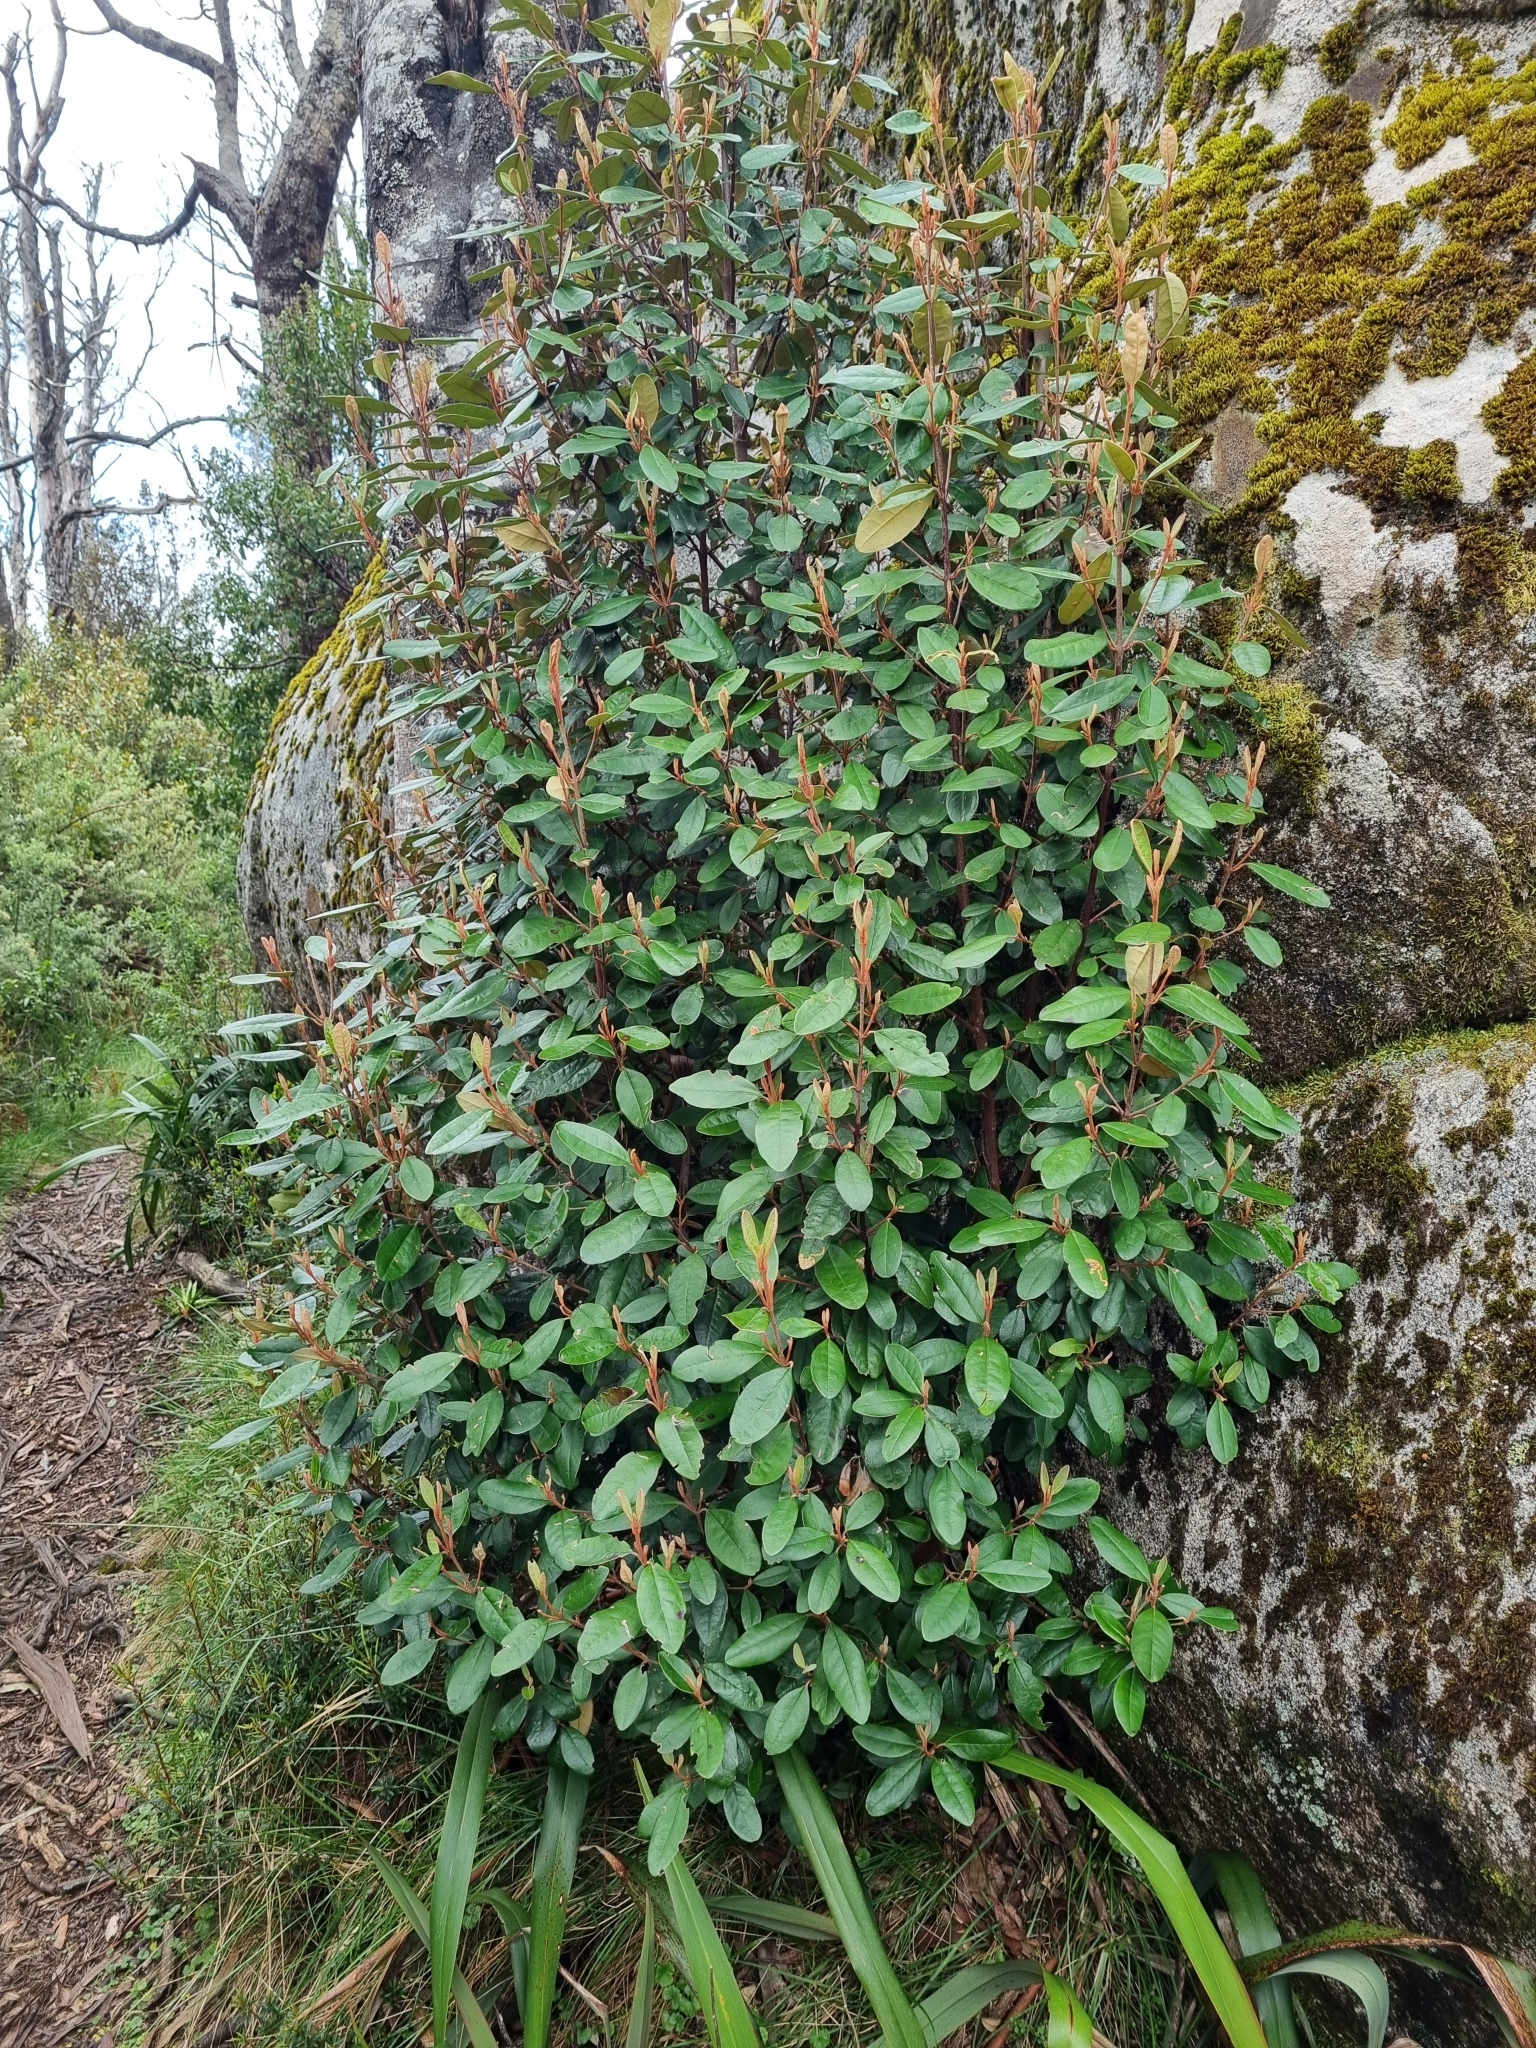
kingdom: Plantae
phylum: Tracheophyta
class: Magnoliopsida
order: Sapindales
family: Rutaceae
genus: Correa
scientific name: Correa lawrenceana
